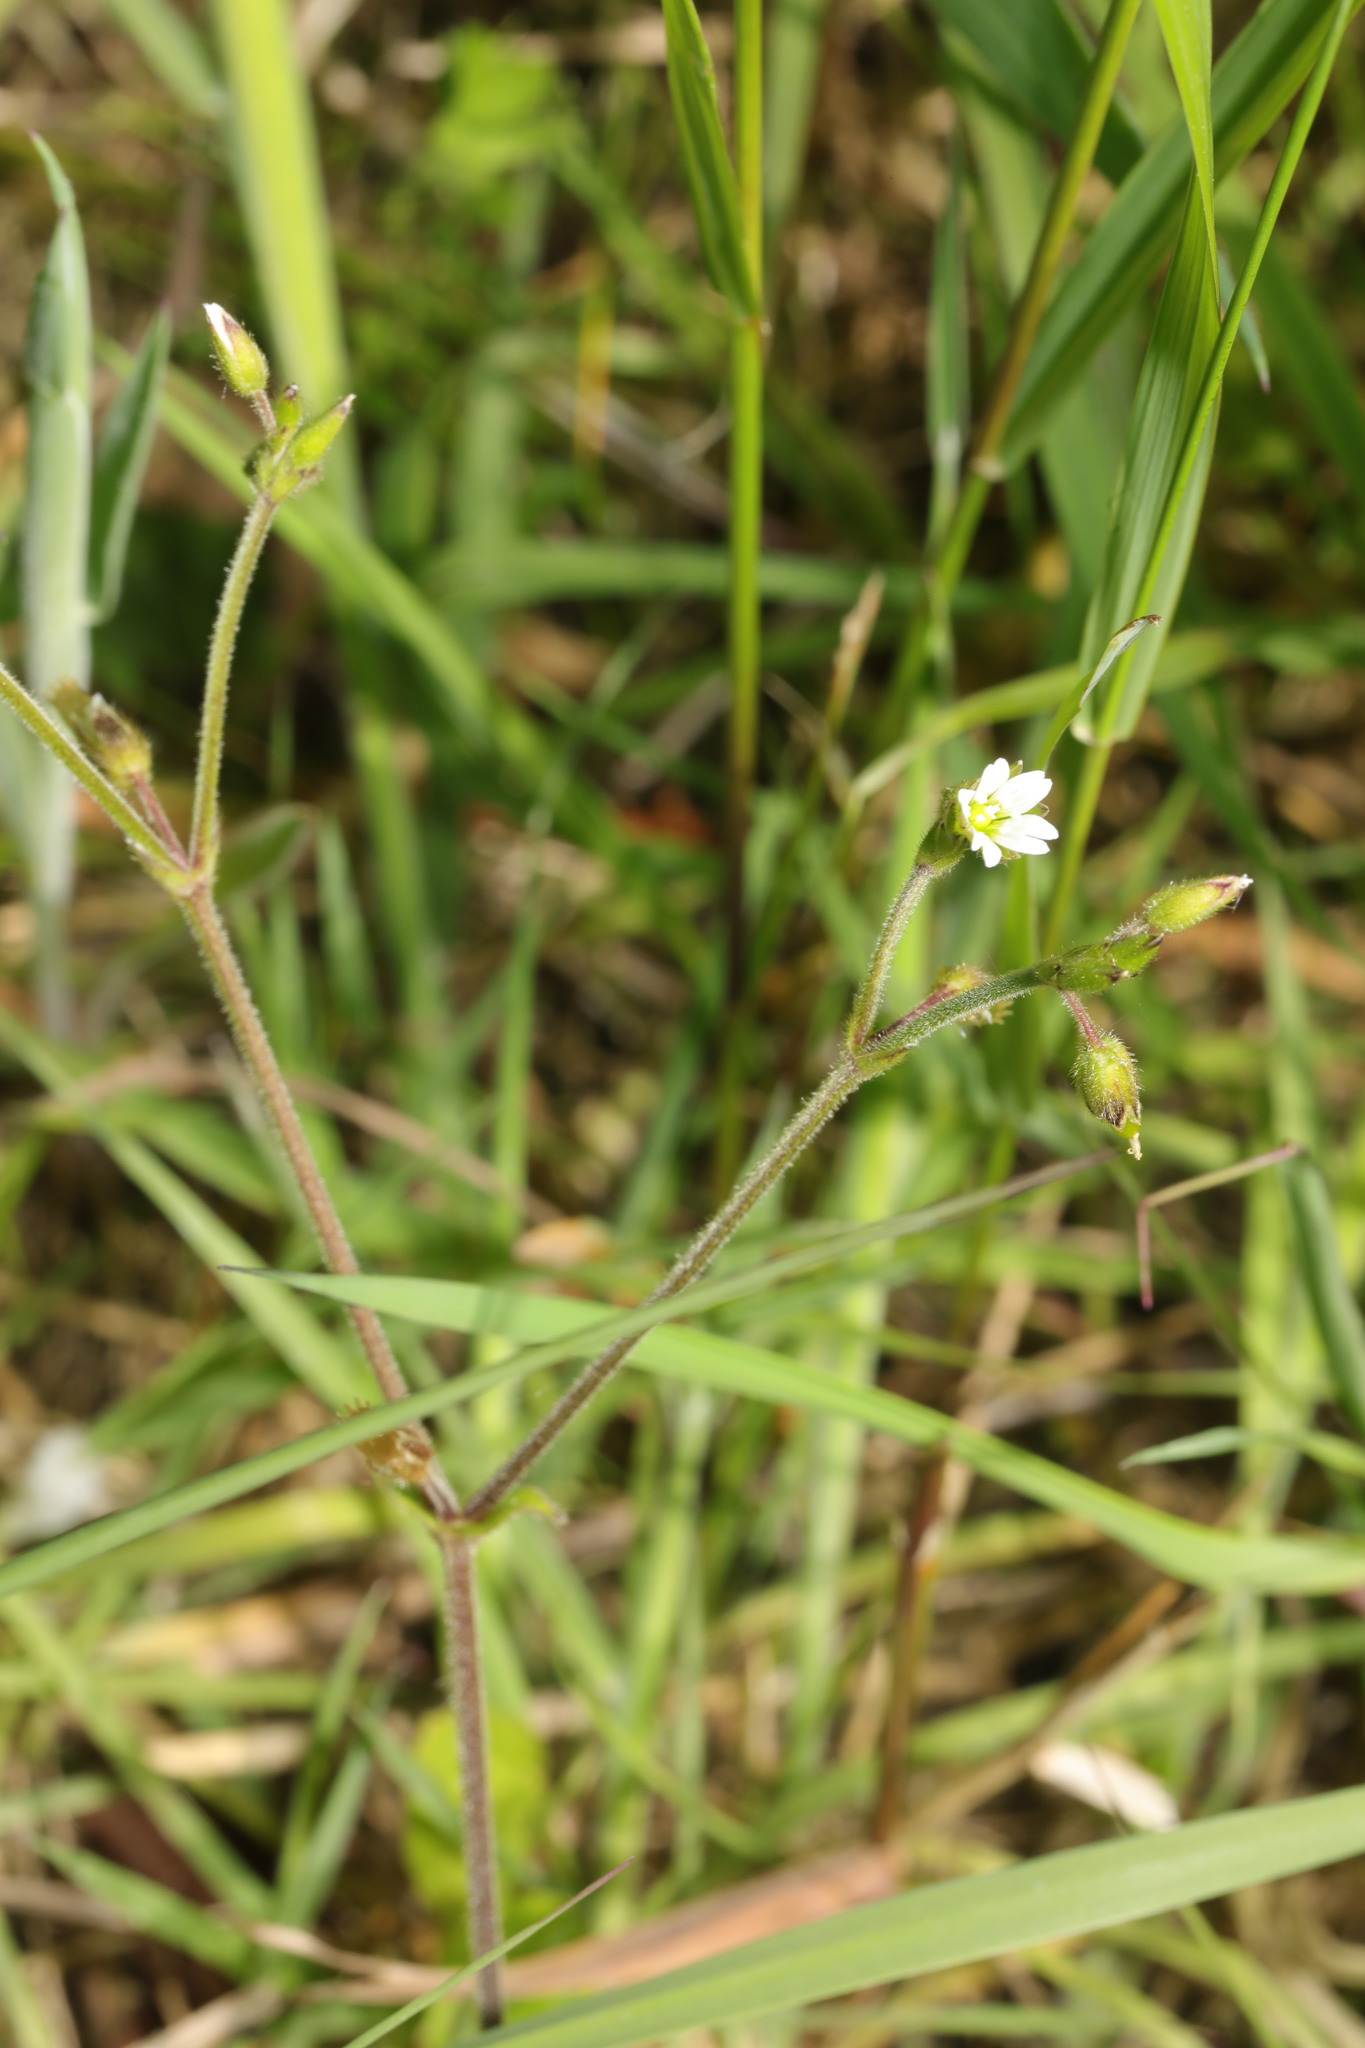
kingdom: Plantae
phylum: Tracheophyta
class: Magnoliopsida
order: Caryophyllales
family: Caryophyllaceae
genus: Cerastium
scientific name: Cerastium fontanum
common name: Common mouse-ear
